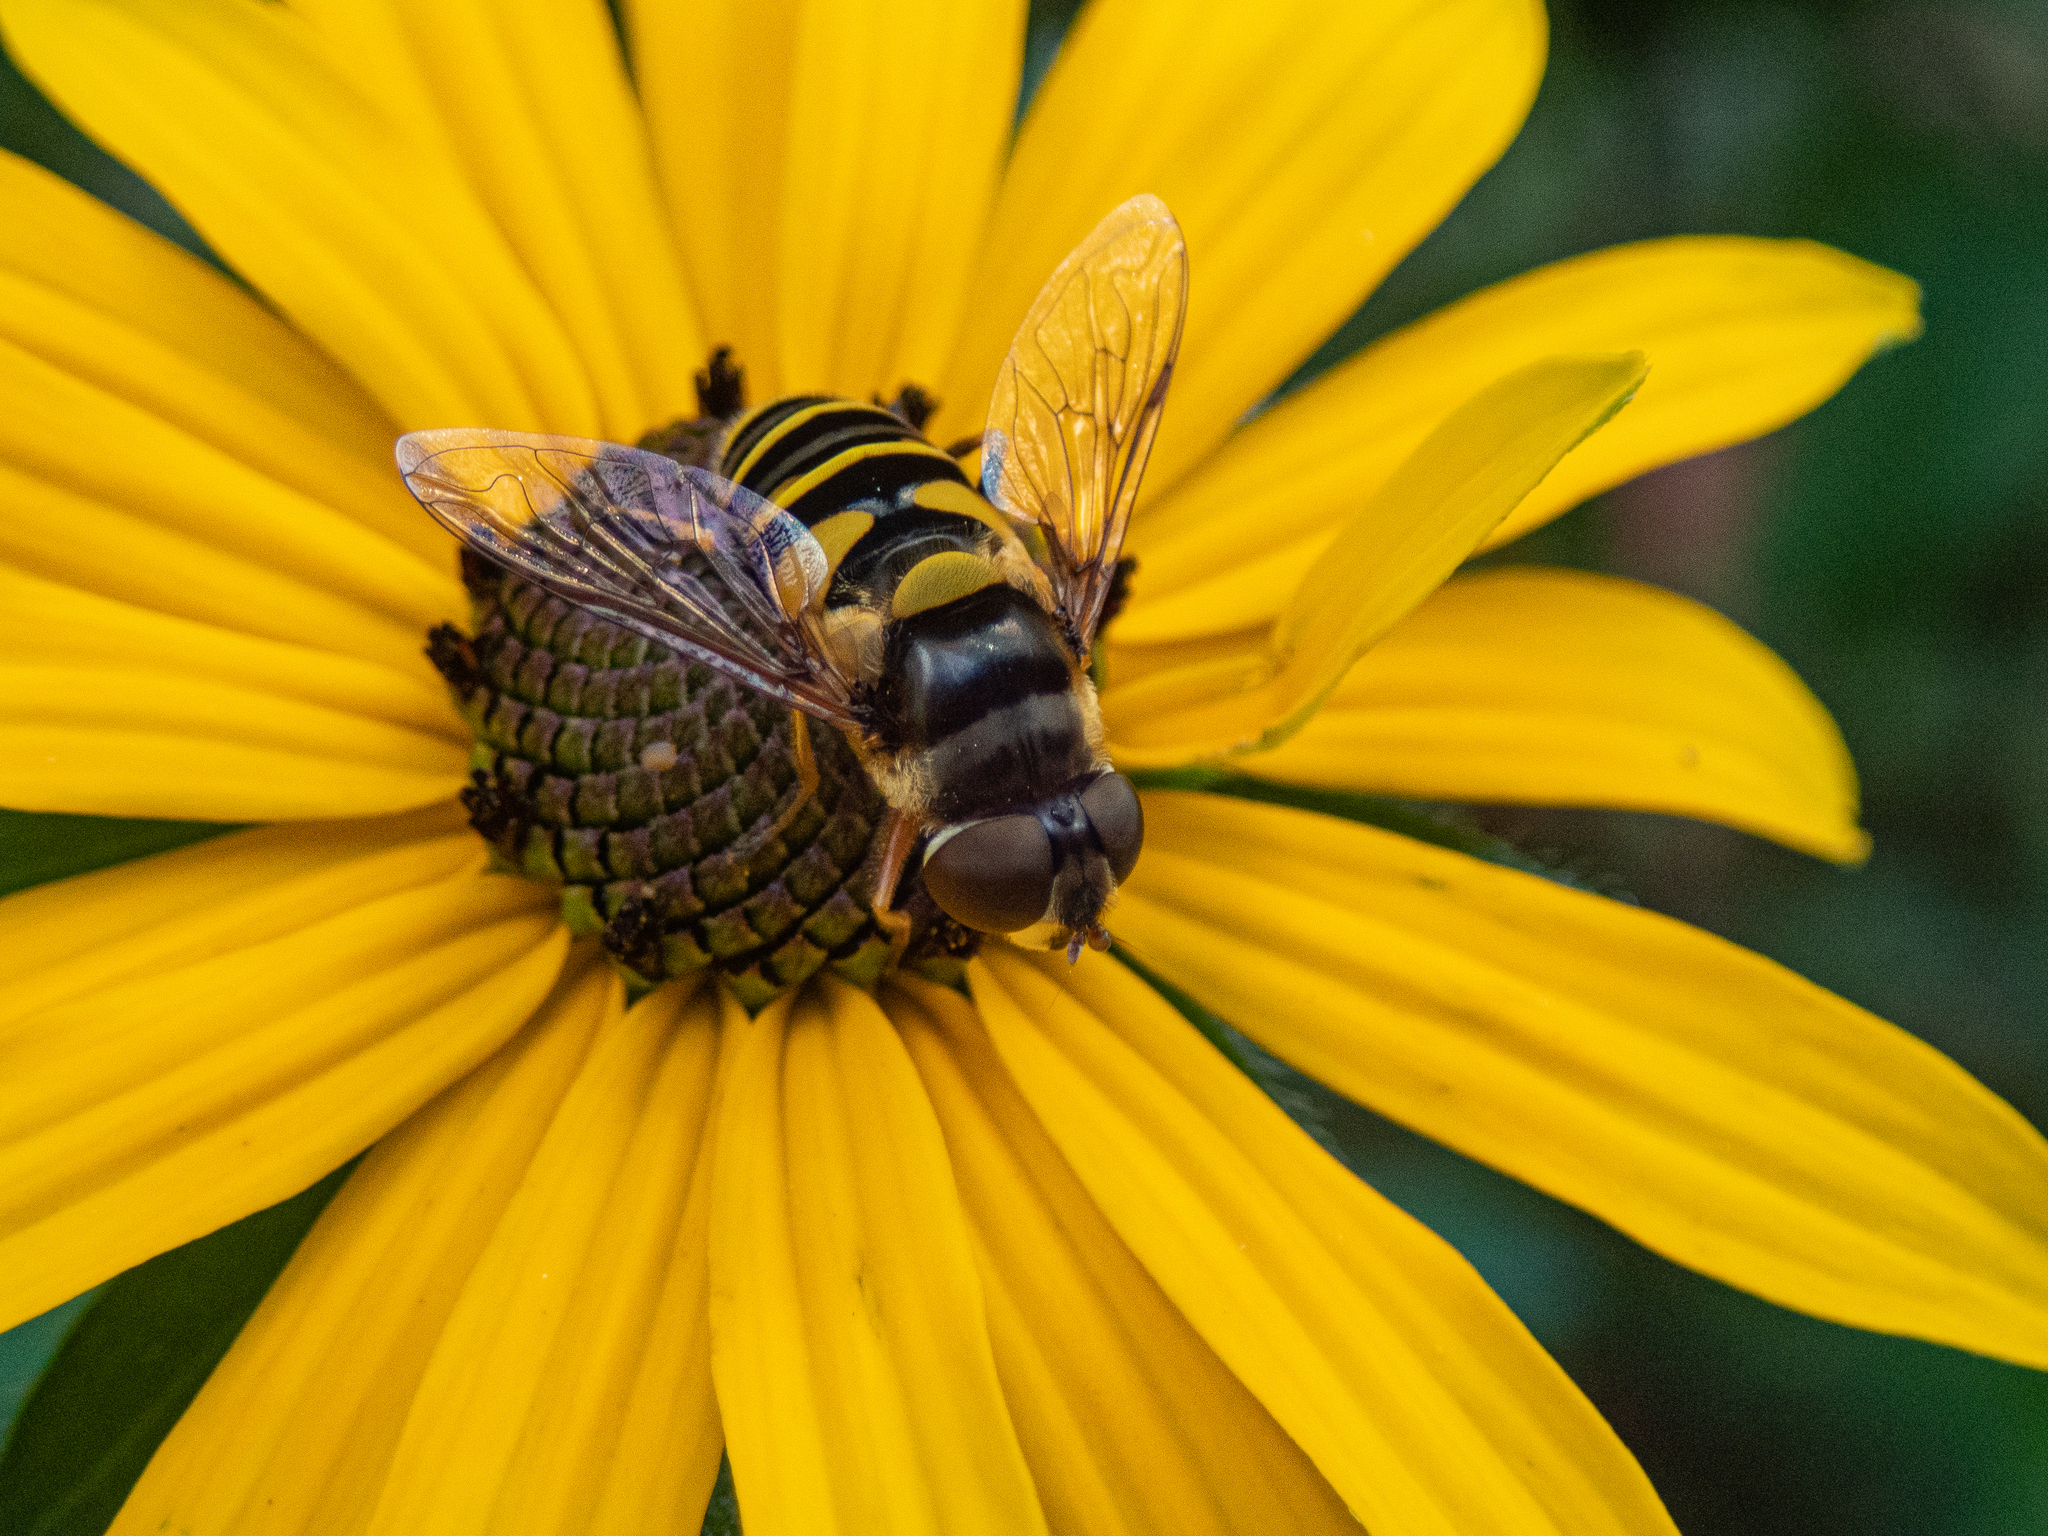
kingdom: Animalia
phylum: Arthropoda
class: Insecta
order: Diptera
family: Syrphidae
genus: Eristalis
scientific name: Eristalis transversa
